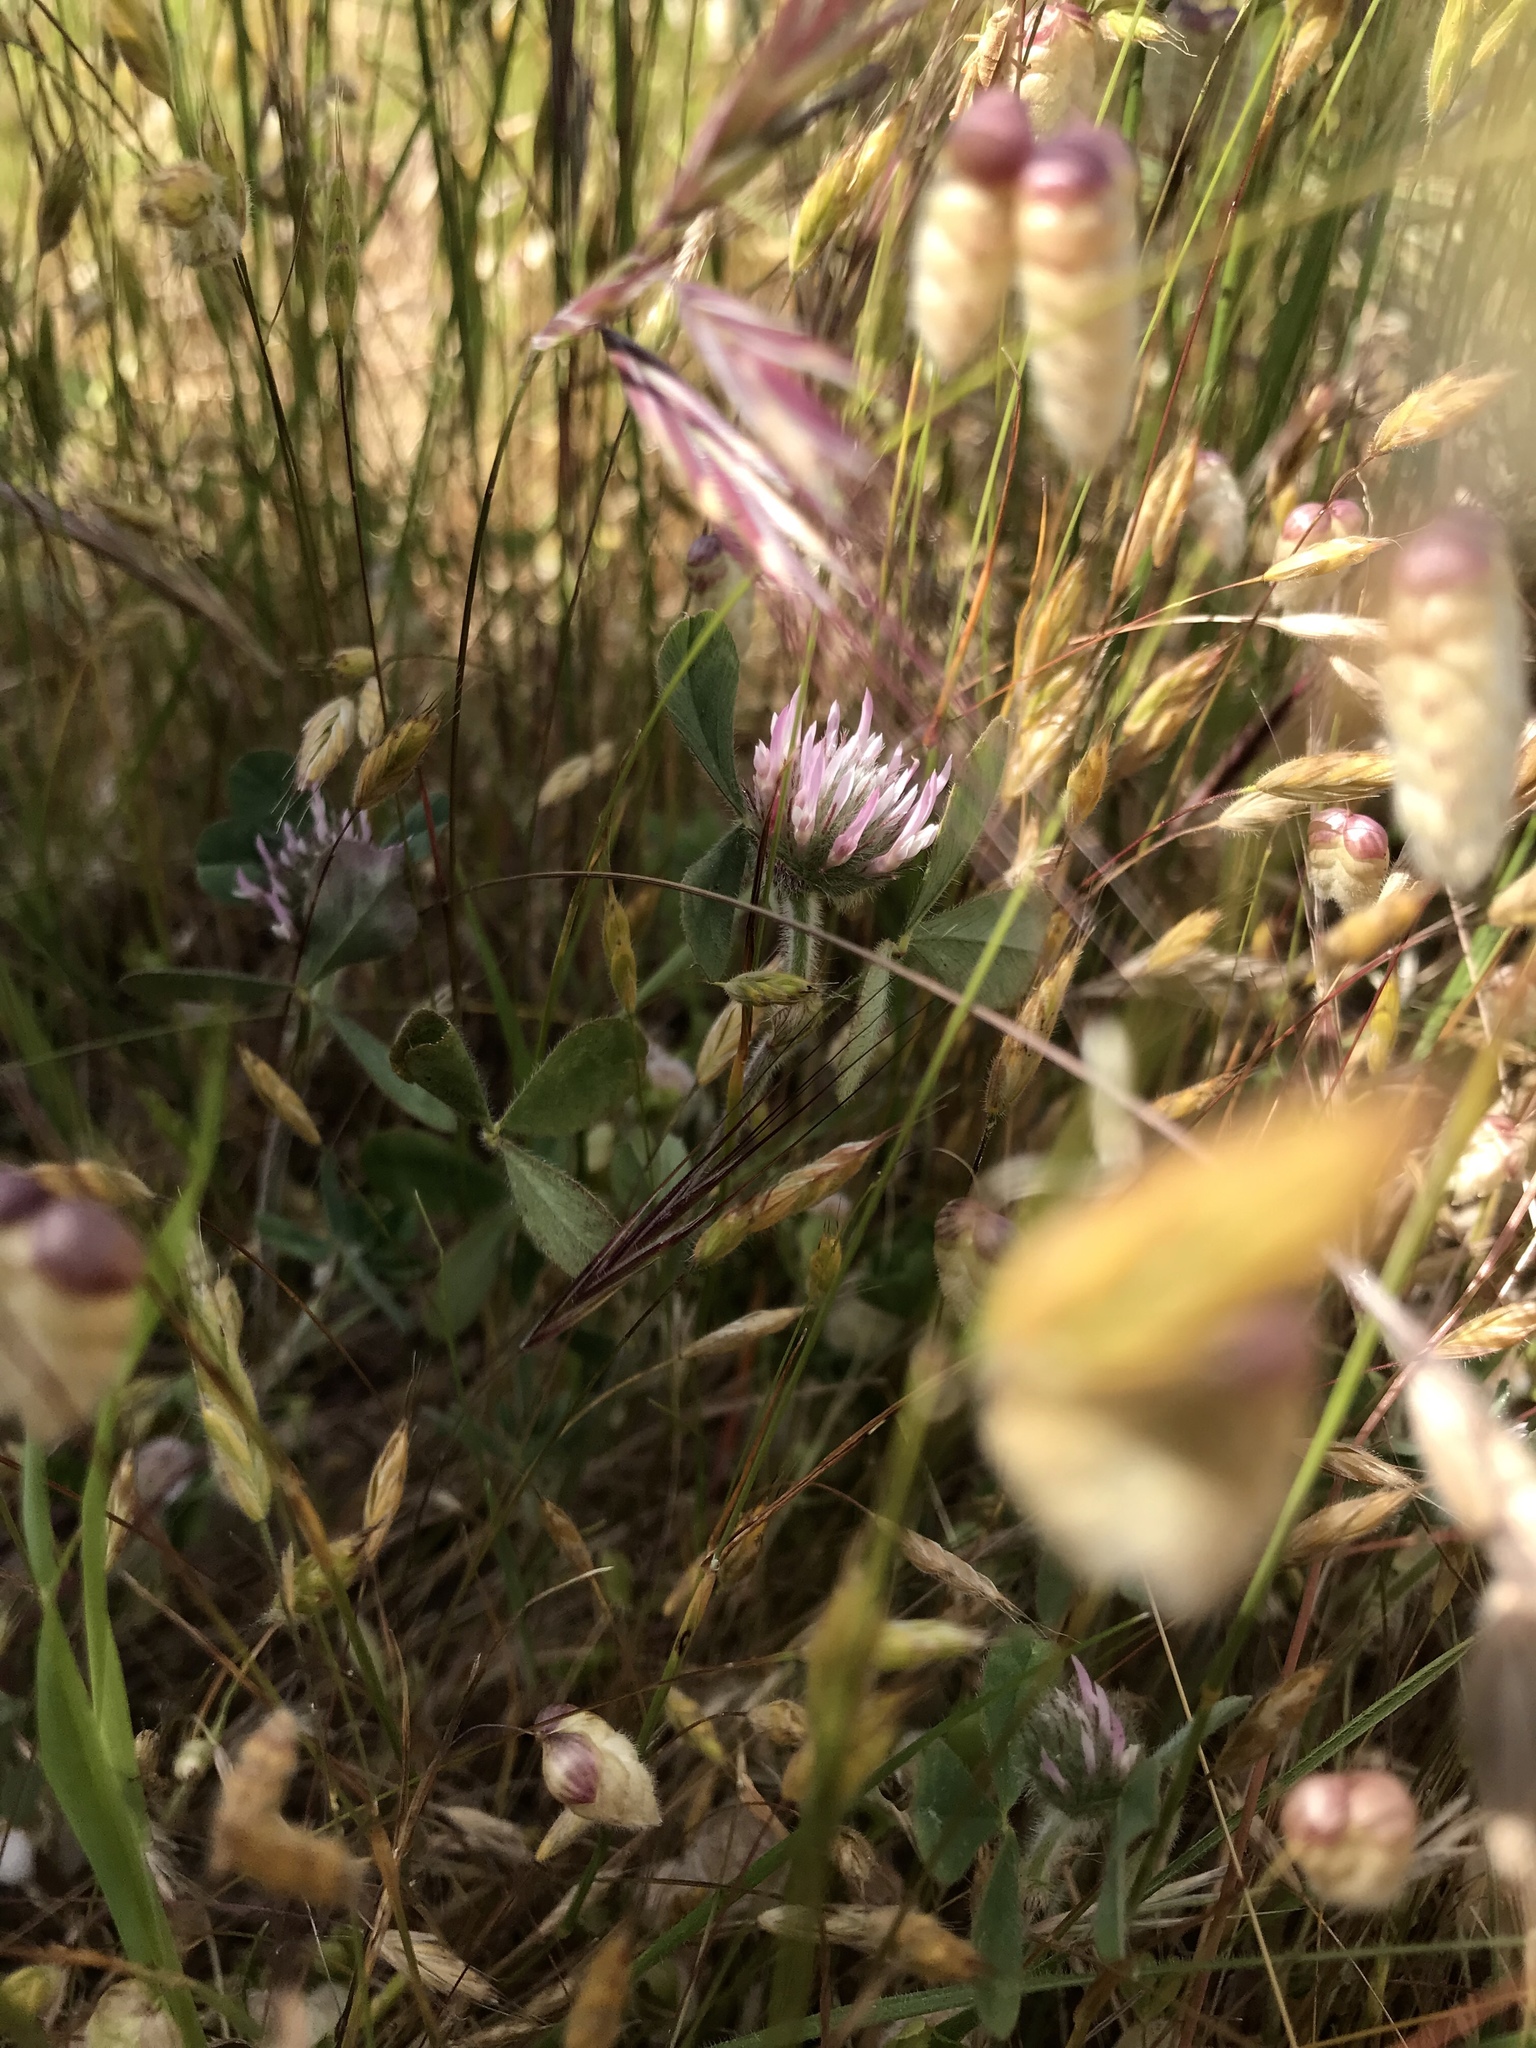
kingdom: Plantae
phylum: Tracheophyta
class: Magnoliopsida
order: Fabales
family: Fabaceae
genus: Trifolium
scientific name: Trifolium hirtum
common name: Rose clover
